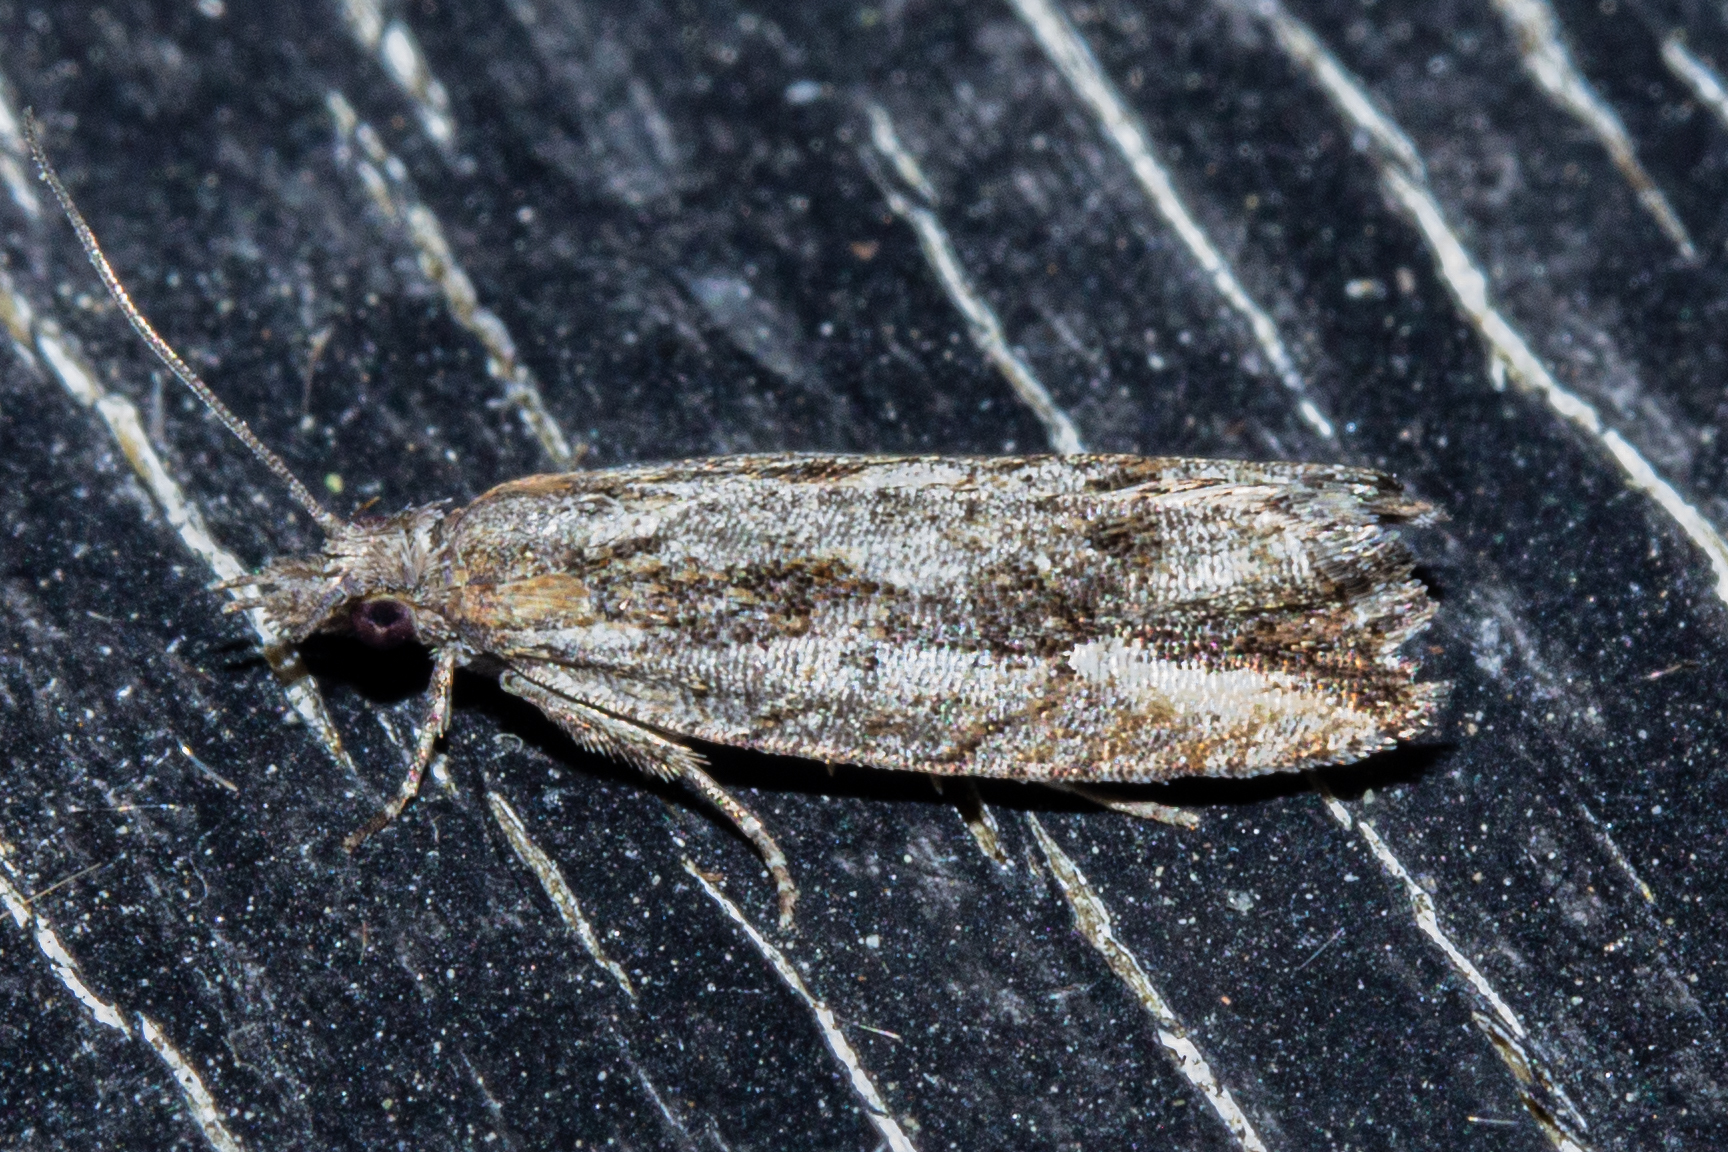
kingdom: Animalia
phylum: Arthropoda
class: Insecta
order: Lepidoptera
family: Tortricidae
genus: Strepsicrates
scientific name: Strepsicrates ejectana
